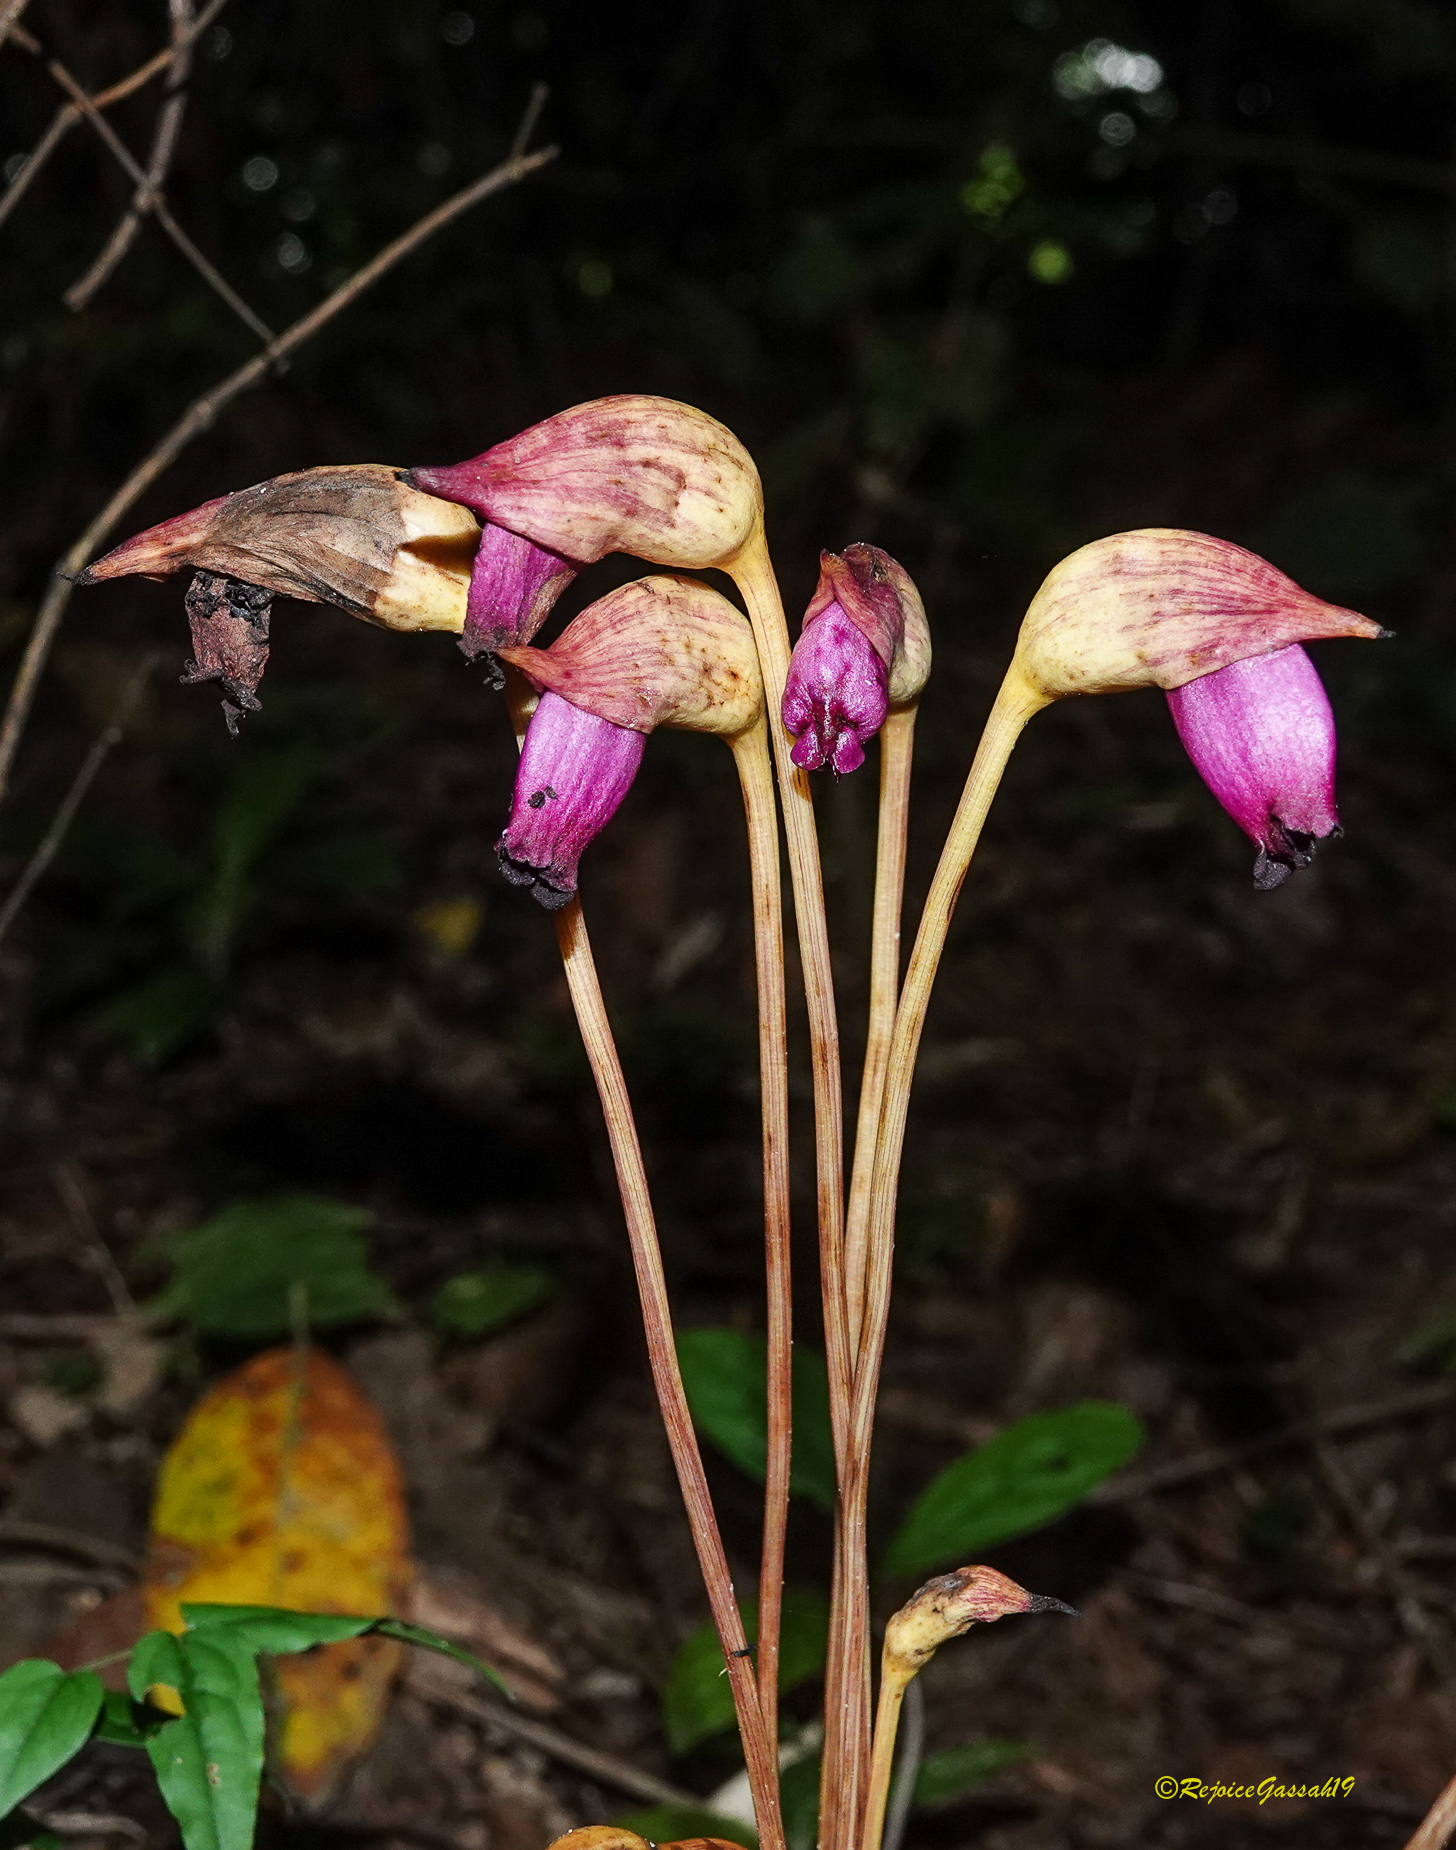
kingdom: Plantae
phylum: Tracheophyta
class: Magnoliopsida
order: Lamiales
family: Orobanchaceae
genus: Aeginetia
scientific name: Aeginetia indica
